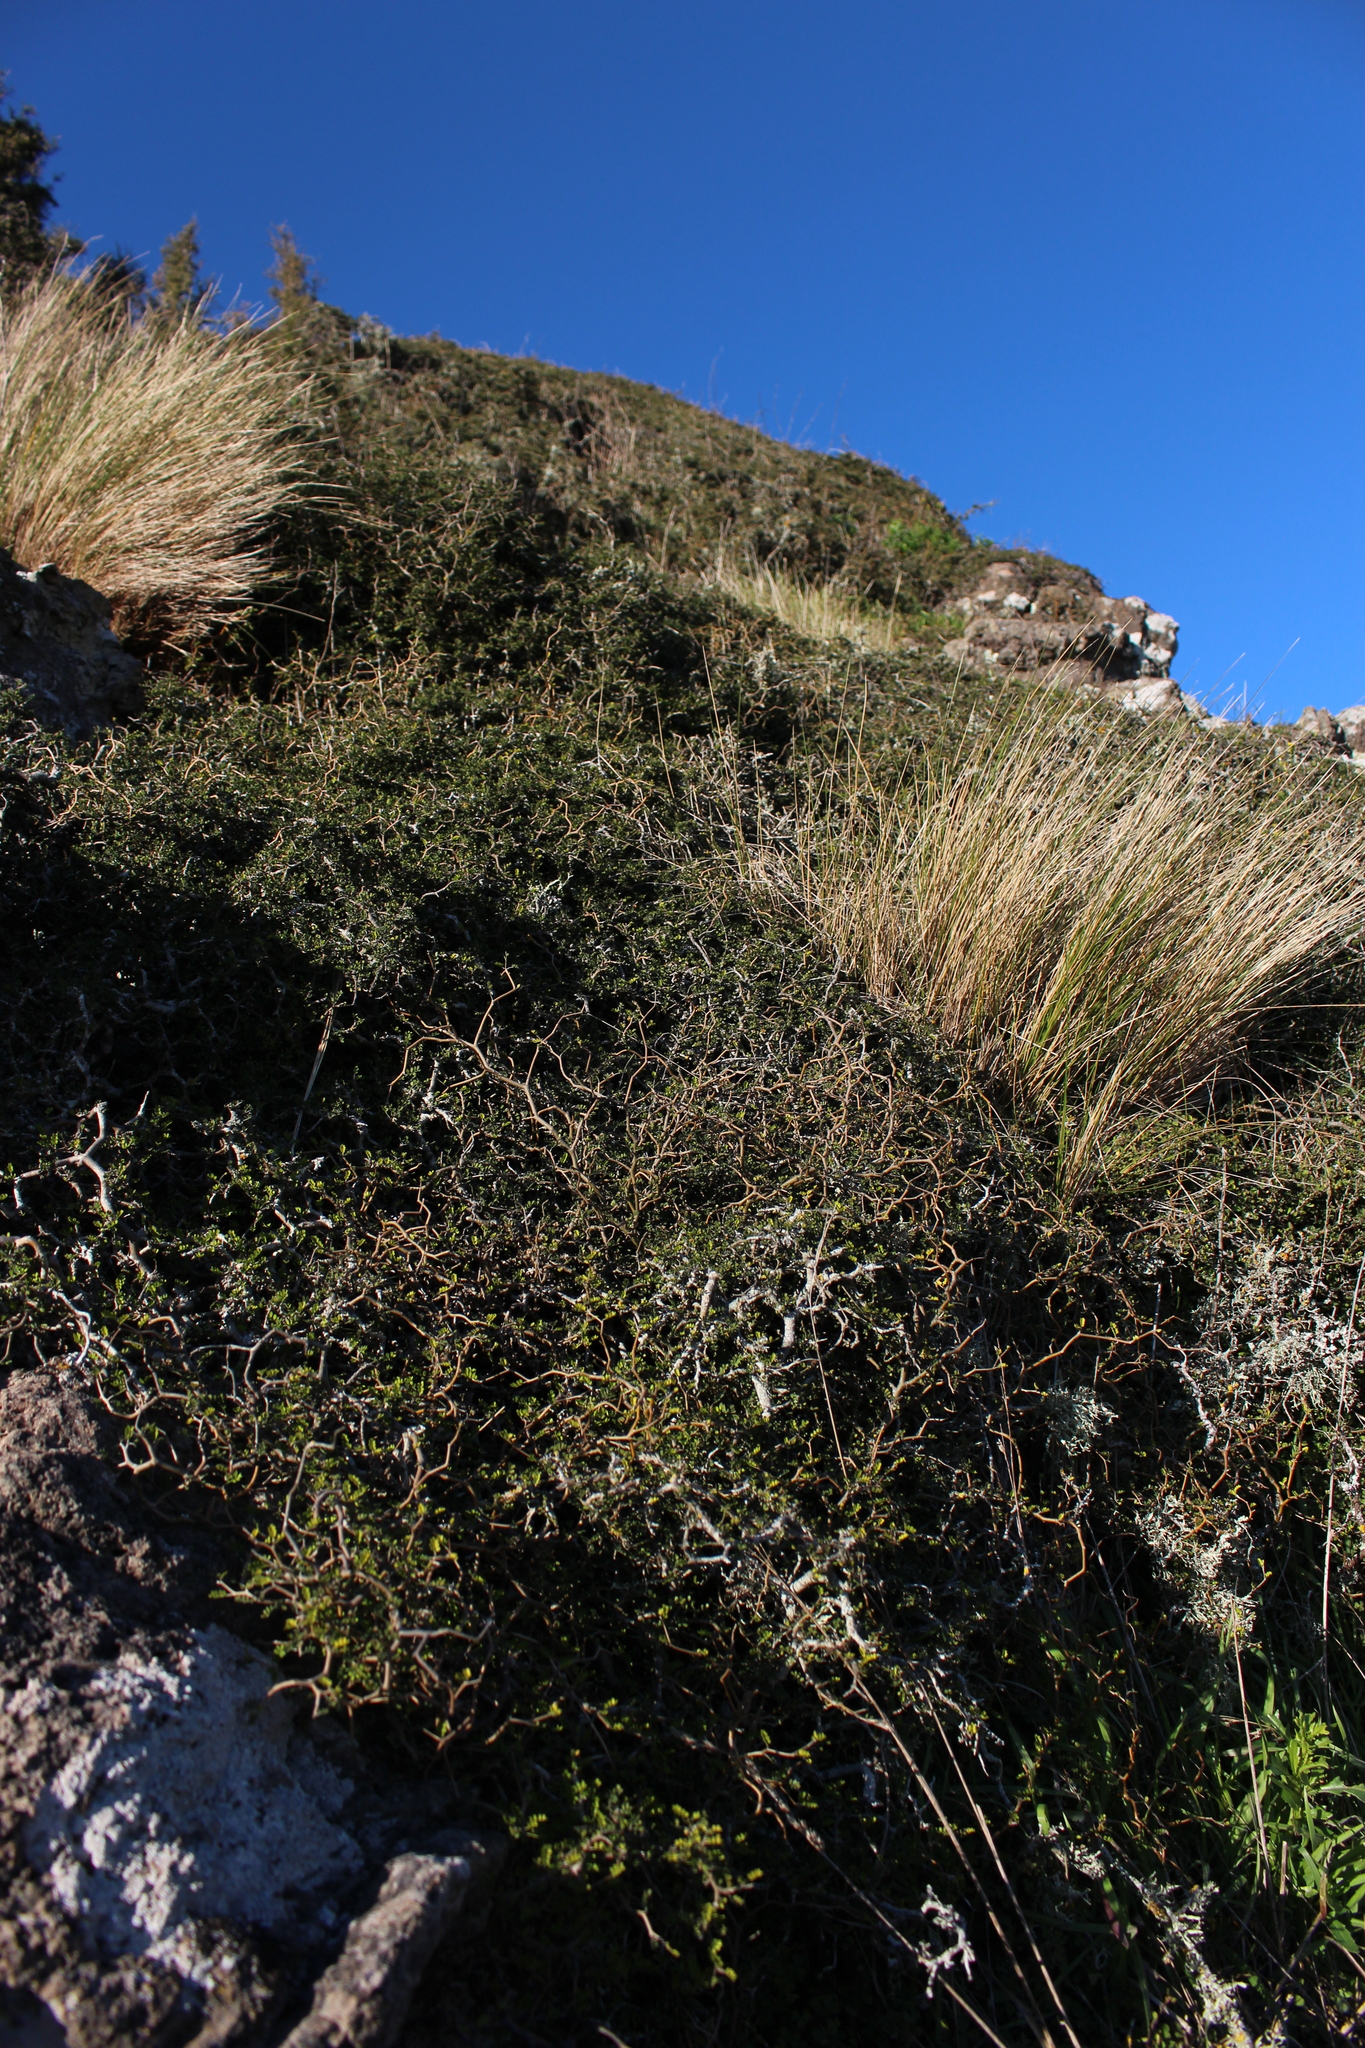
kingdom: Plantae
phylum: Tracheophyta
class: Magnoliopsida
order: Fabales
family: Fabaceae
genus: Sophora
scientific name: Sophora prostrata
